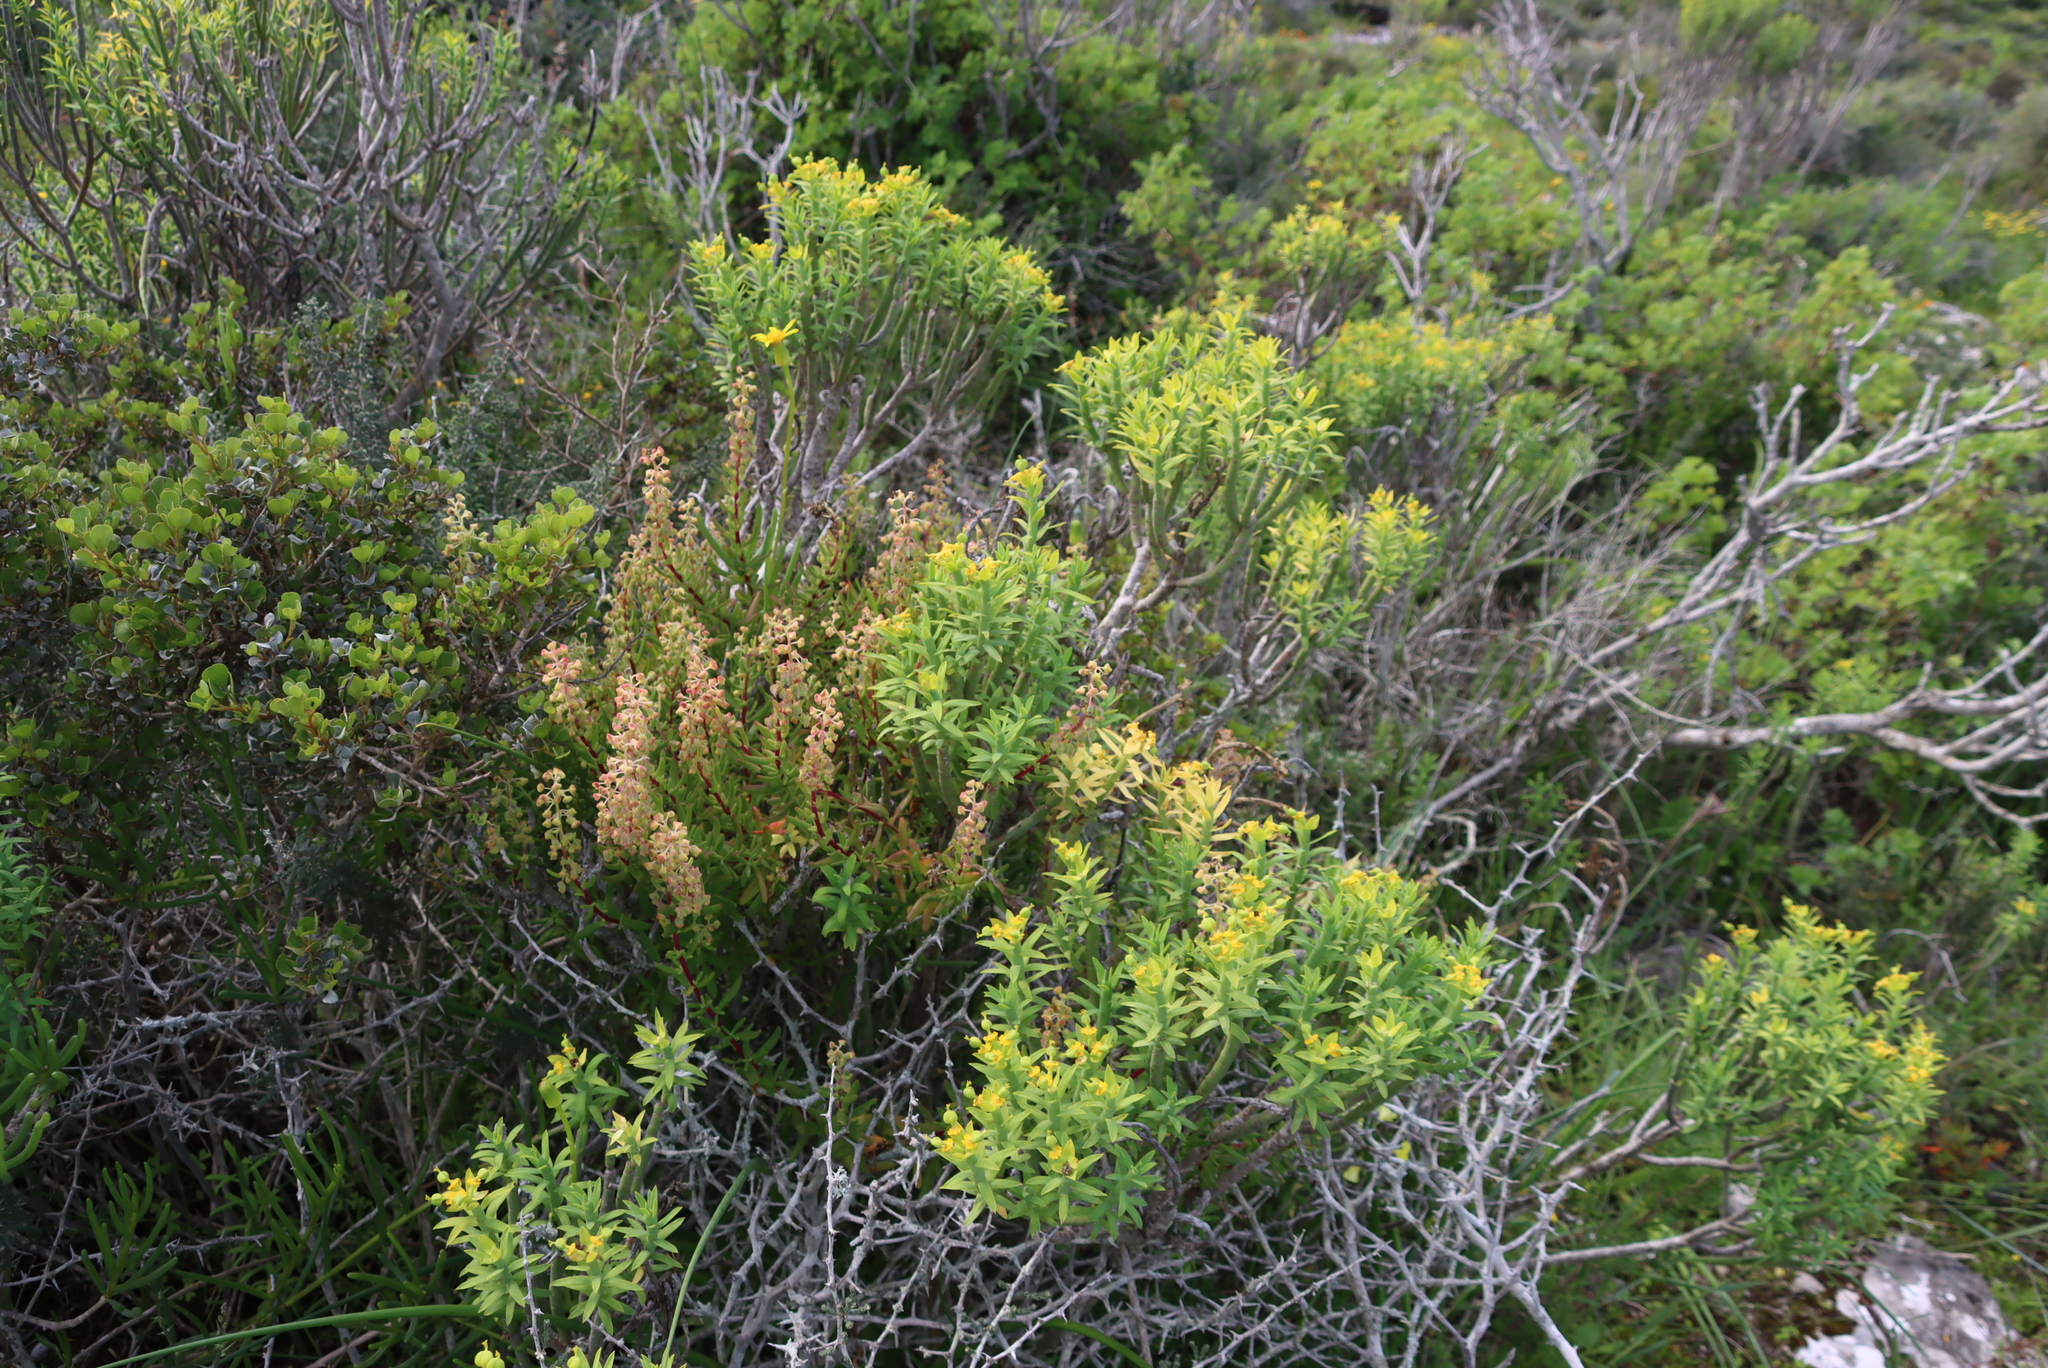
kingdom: Plantae
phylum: Tracheophyta
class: Magnoliopsida
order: Malpighiales
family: Euphorbiaceae
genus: Euphorbia
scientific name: Euphorbia mauritanica
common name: Jackal's-food
